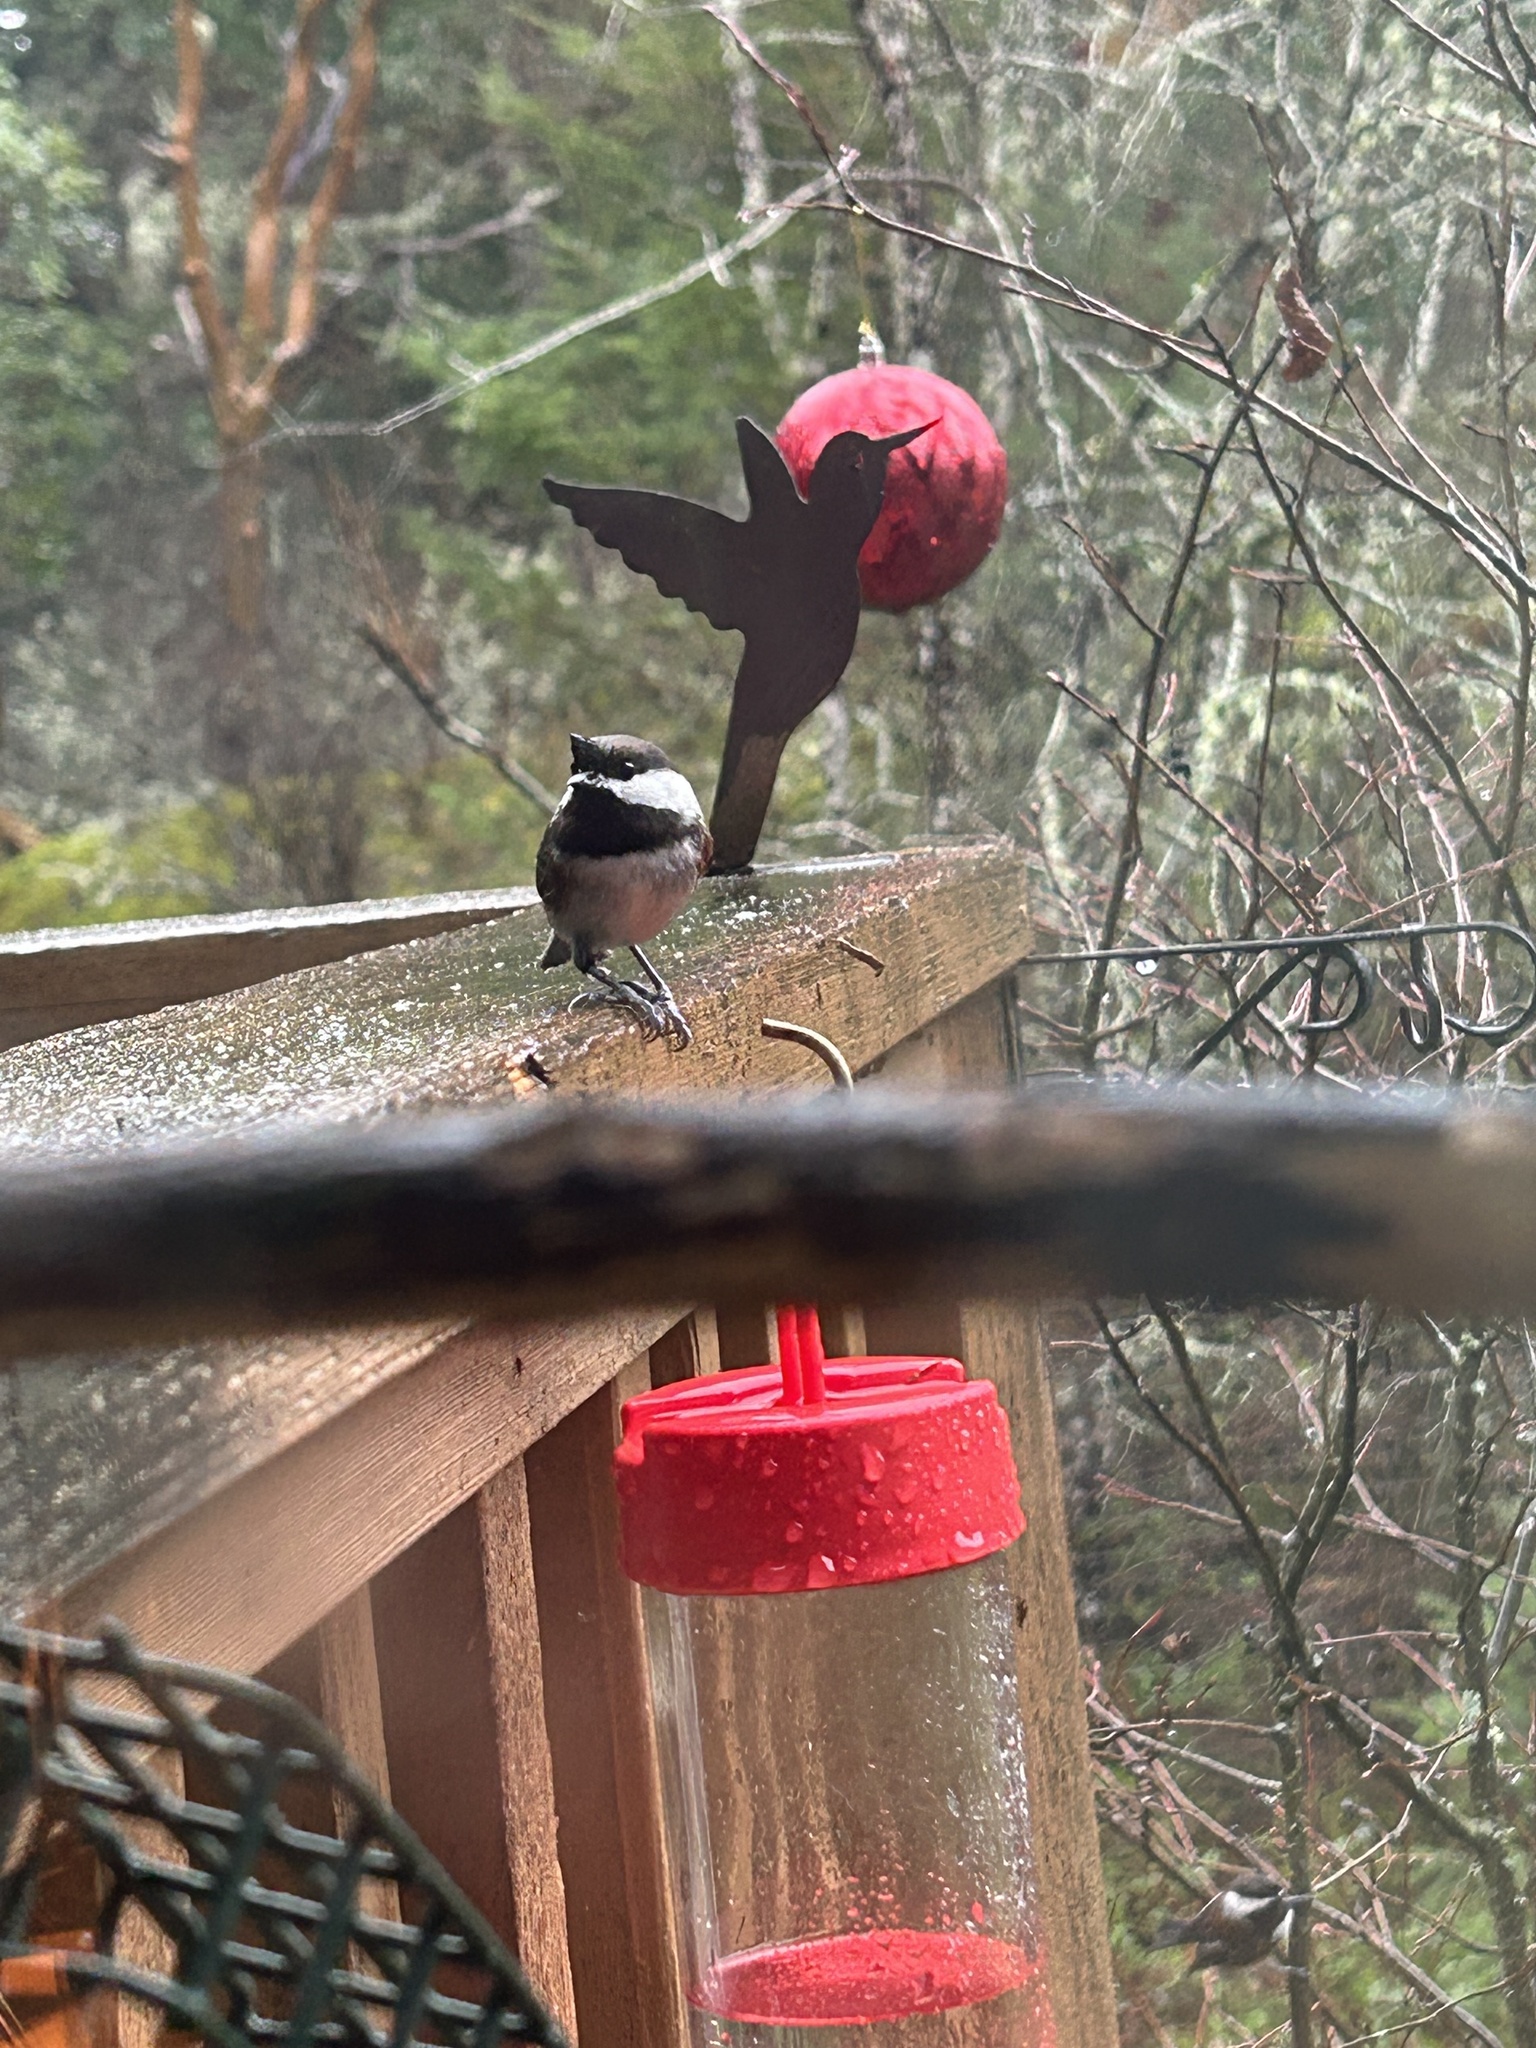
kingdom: Animalia
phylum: Chordata
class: Aves
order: Passeriformes
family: Paridae
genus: Poecile
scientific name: Poecile rufescens
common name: Chestnut-backed chickadee
